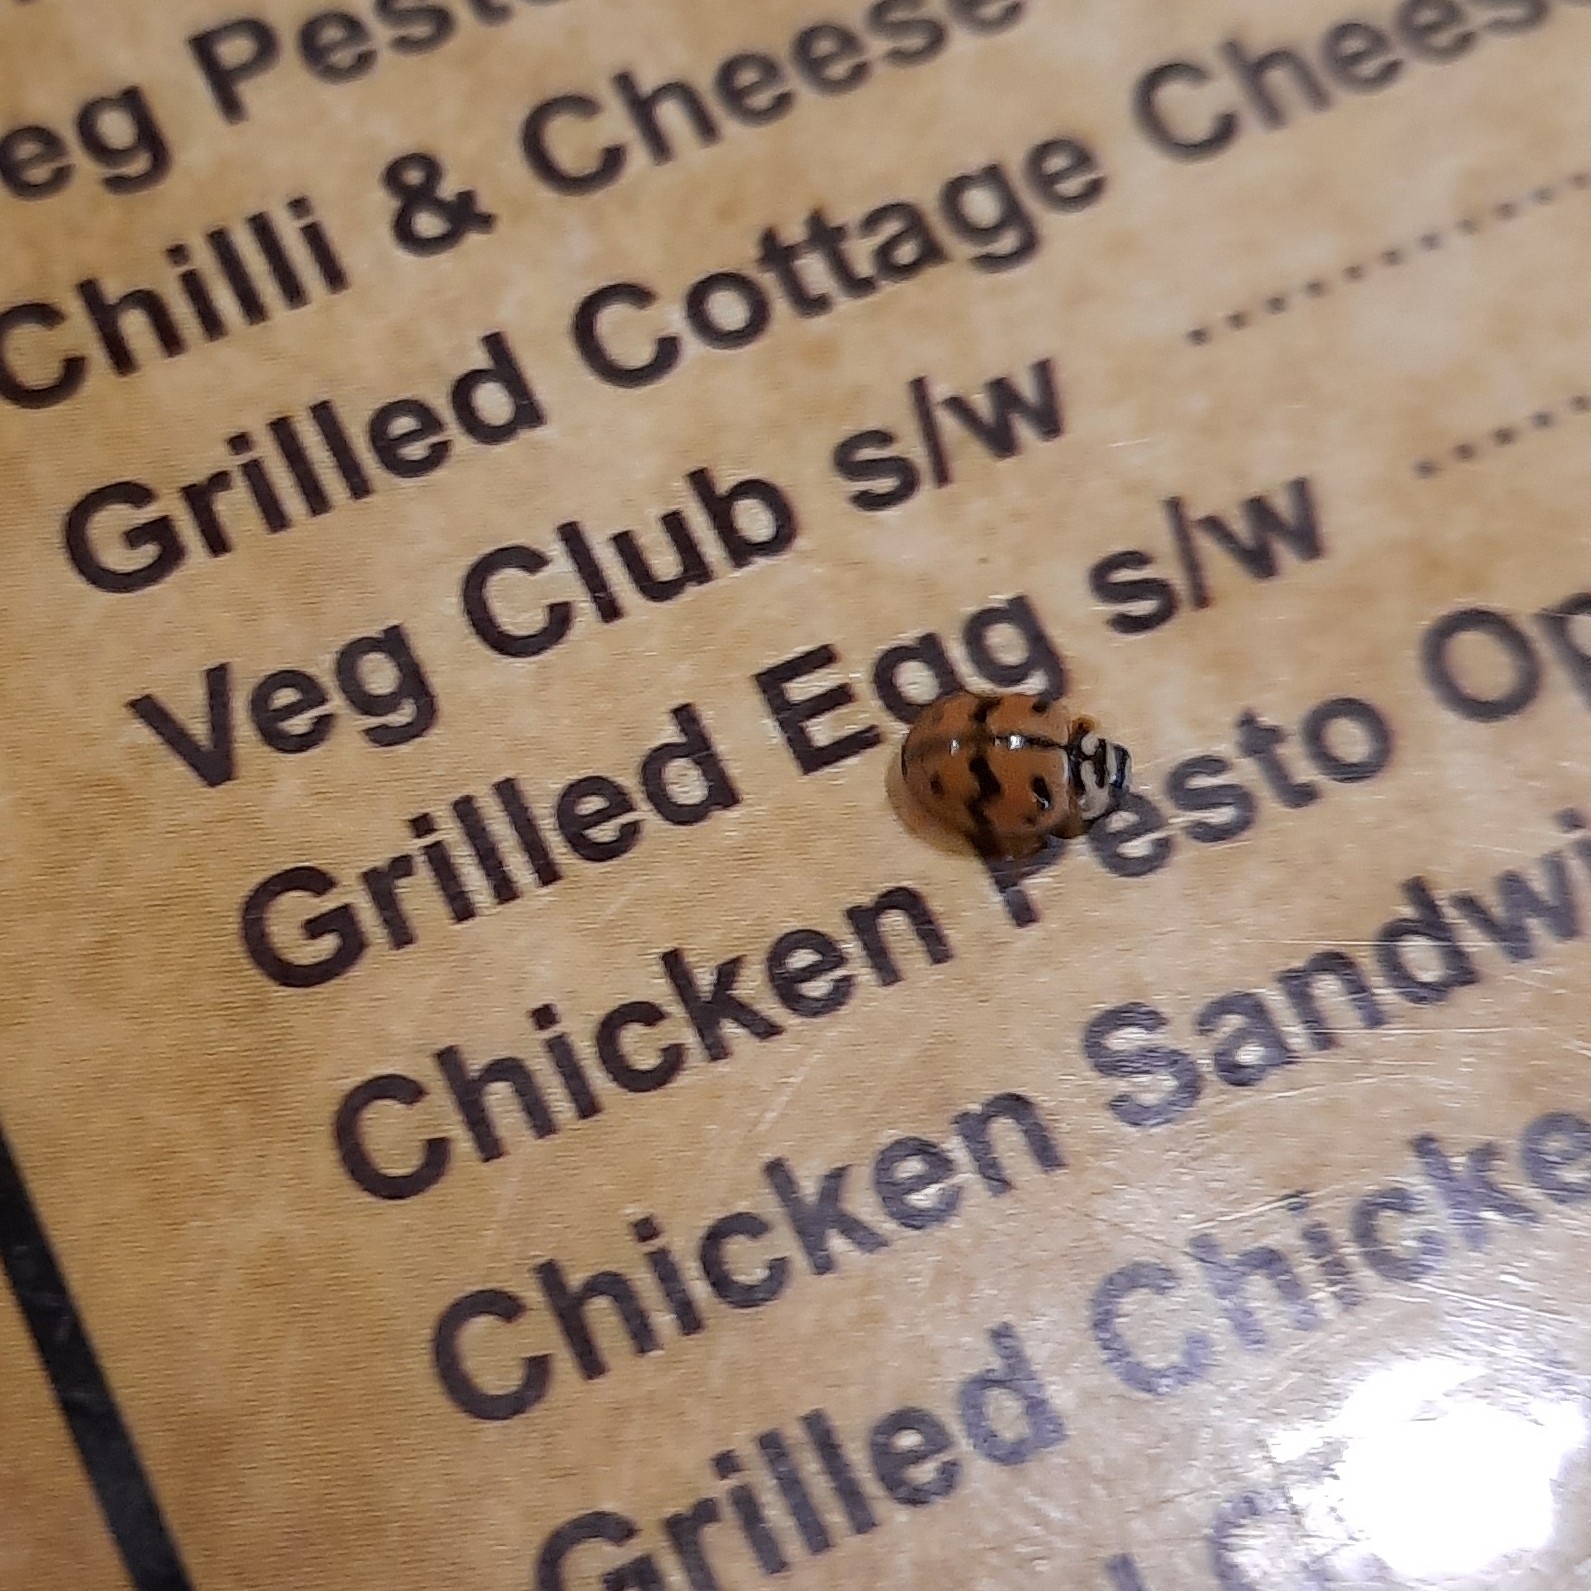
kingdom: Animalia
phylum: Arthropoda
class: Insecta
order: Coleoptera
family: Coccinellidae
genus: Cheilomenes
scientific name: Cheilomenes sexmaculata
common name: Ladybird beetle
